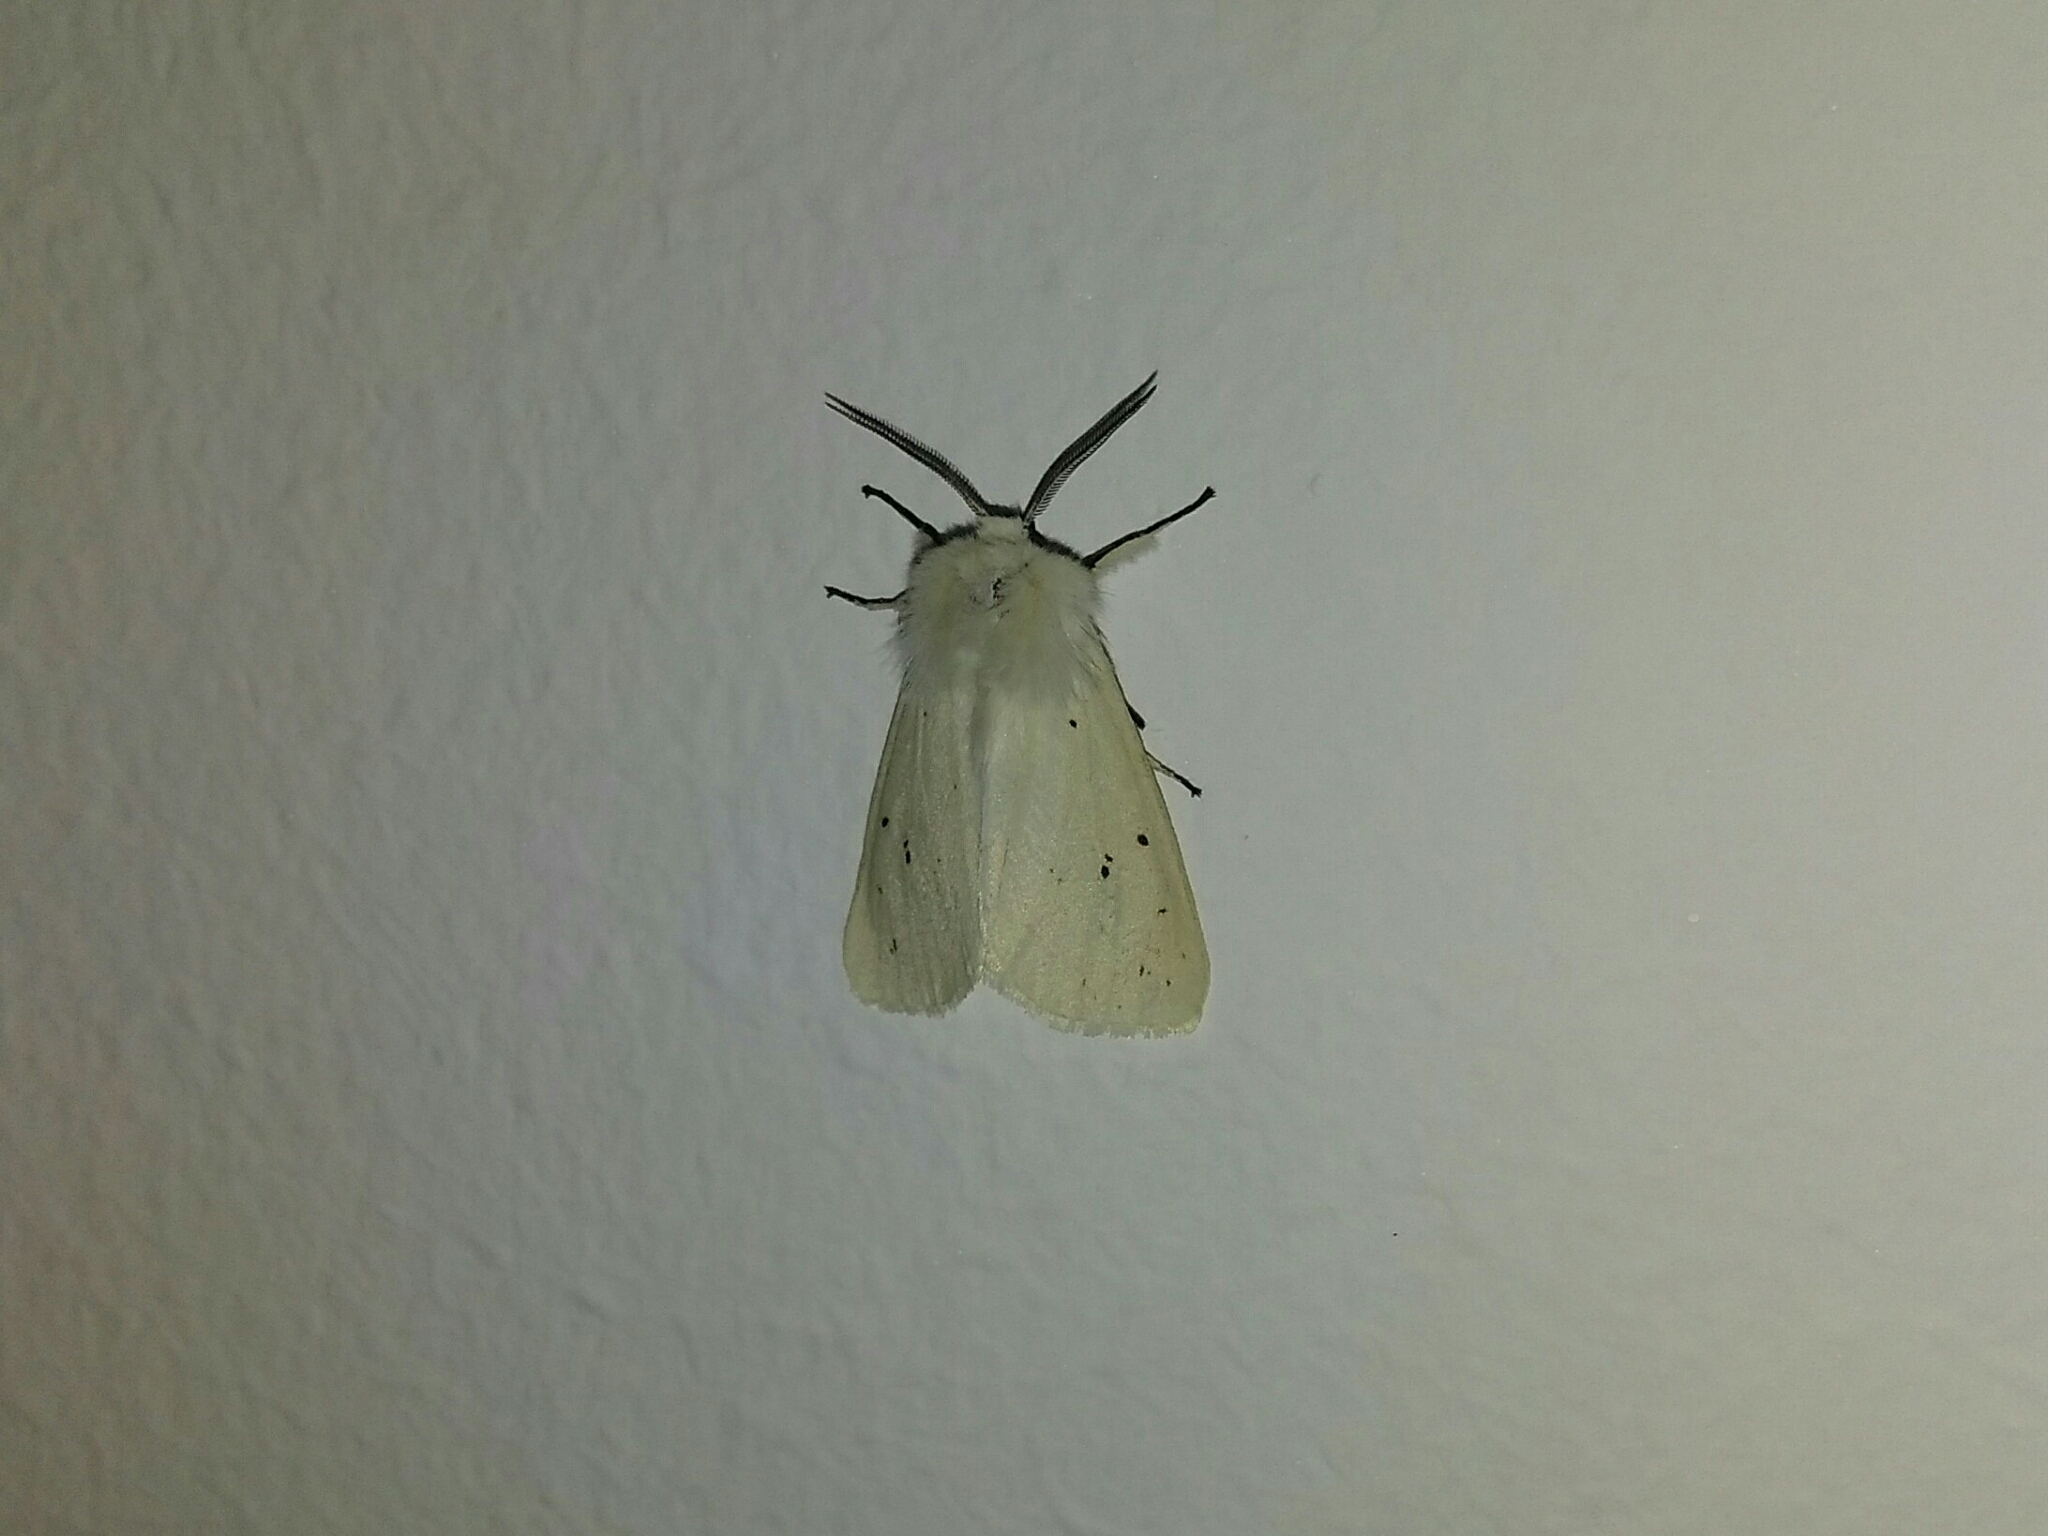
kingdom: Animalia
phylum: Arthropoda
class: Insecta
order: Lepidoptera
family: Erebidae
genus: Diaphora
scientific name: Diaphora mendica
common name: Muslin moth
